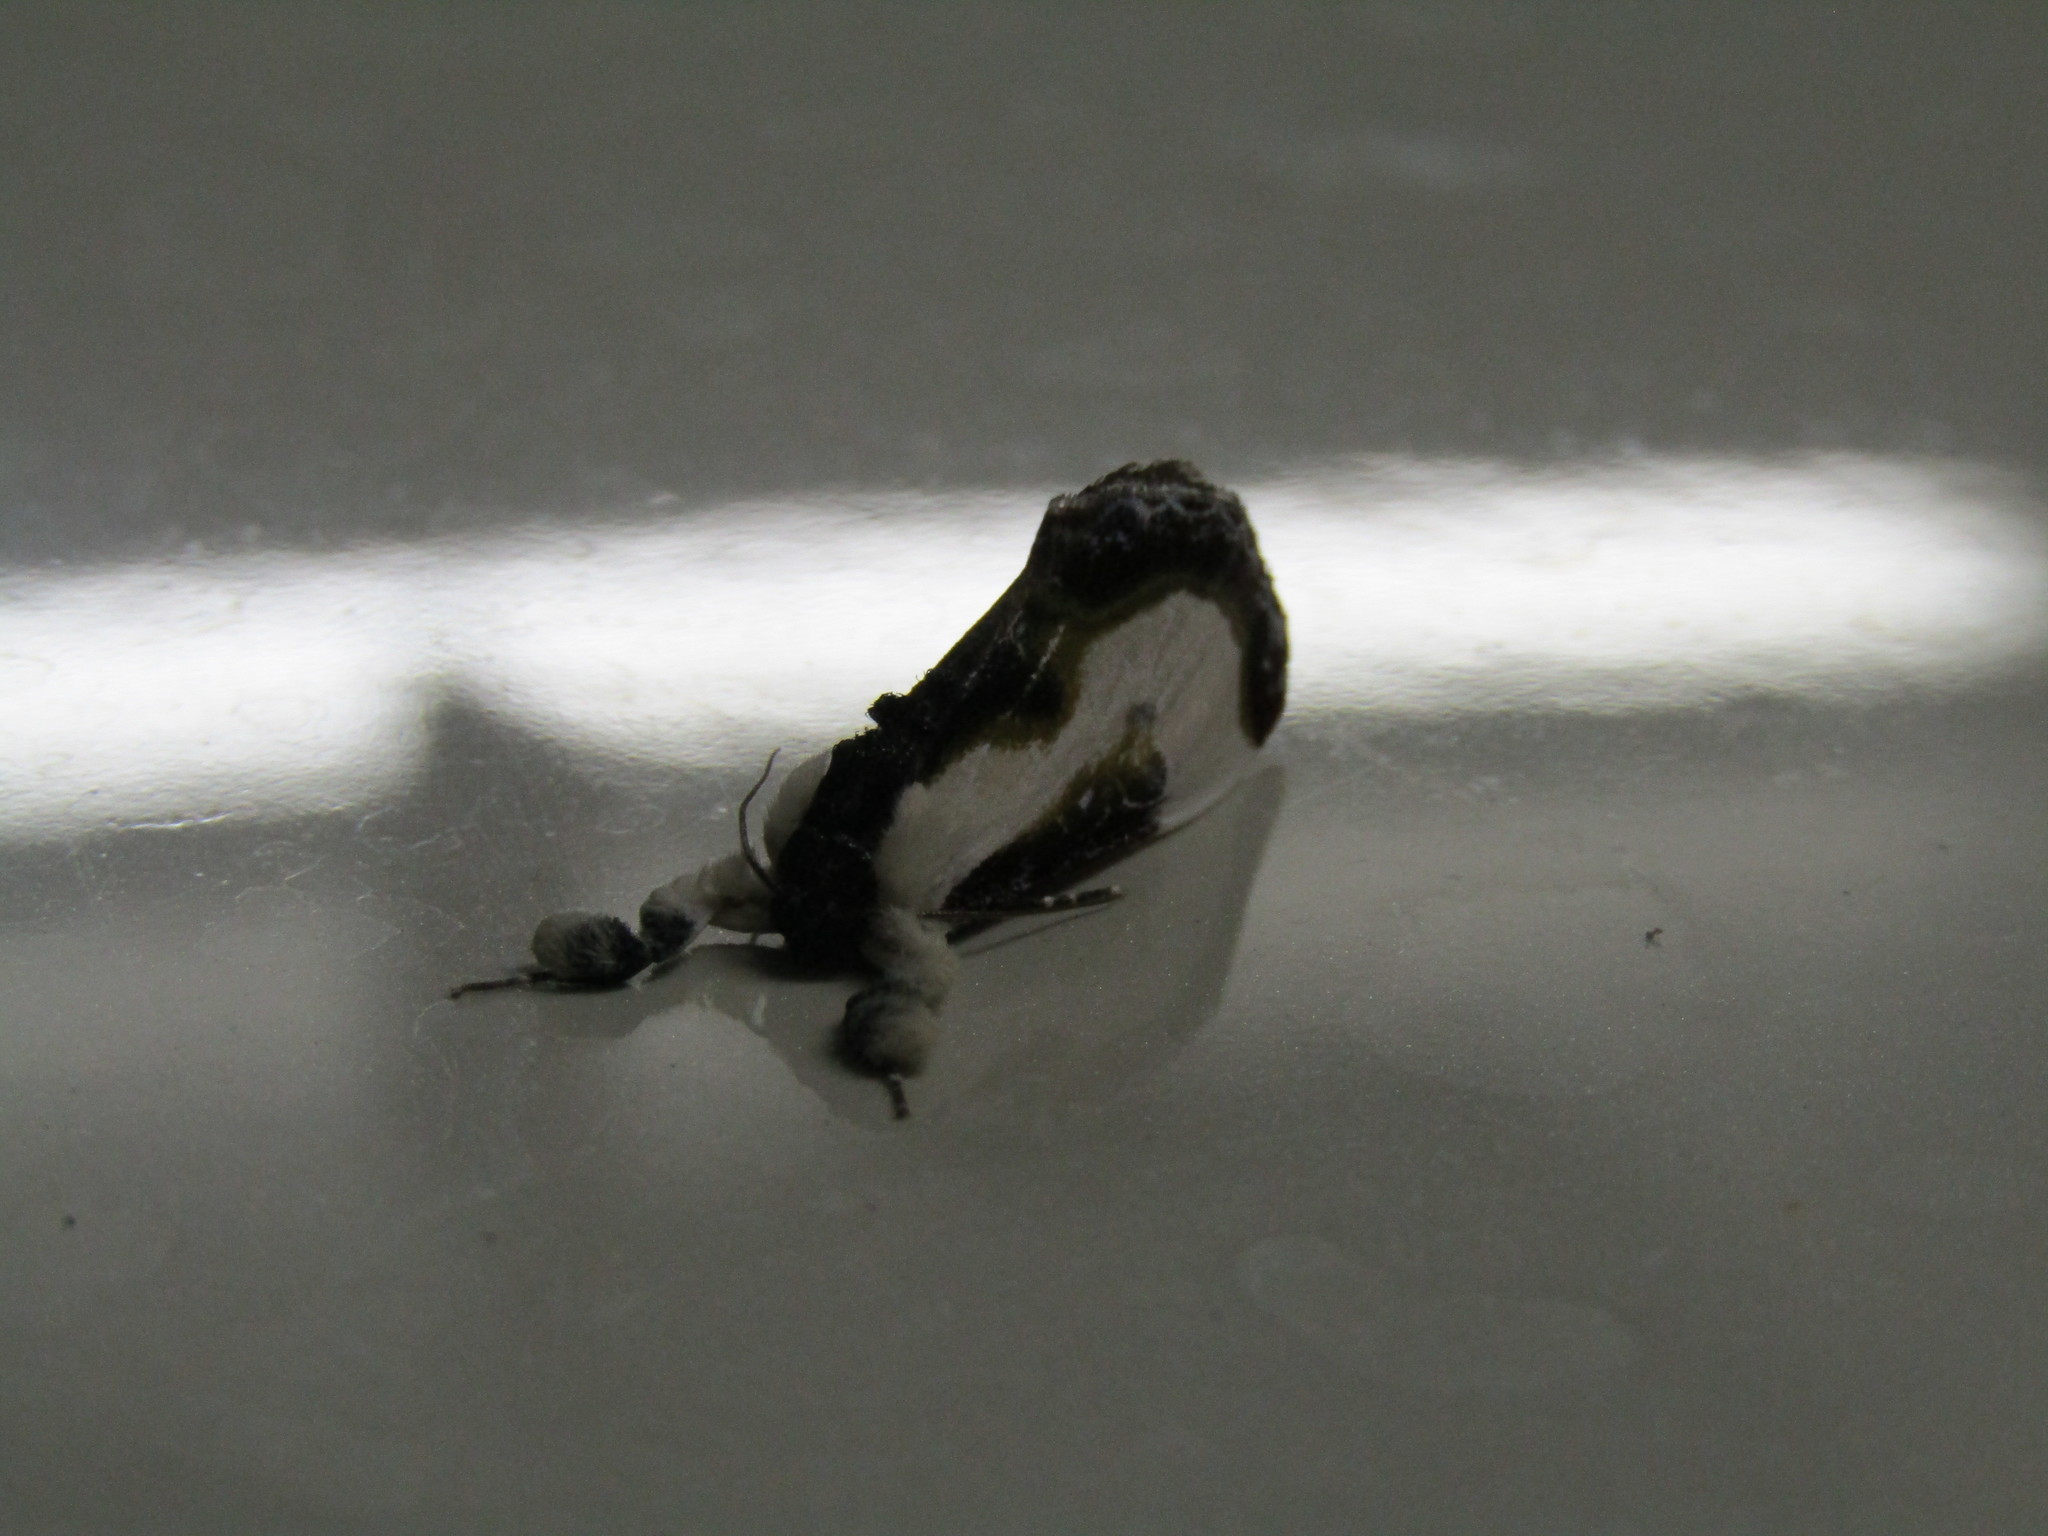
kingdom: Animalia
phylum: Arthropoda
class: Insecta
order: Lepidoptera
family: Noctuidae
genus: Eudryas
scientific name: Eudryas grata
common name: Beautiful wood-nymph
